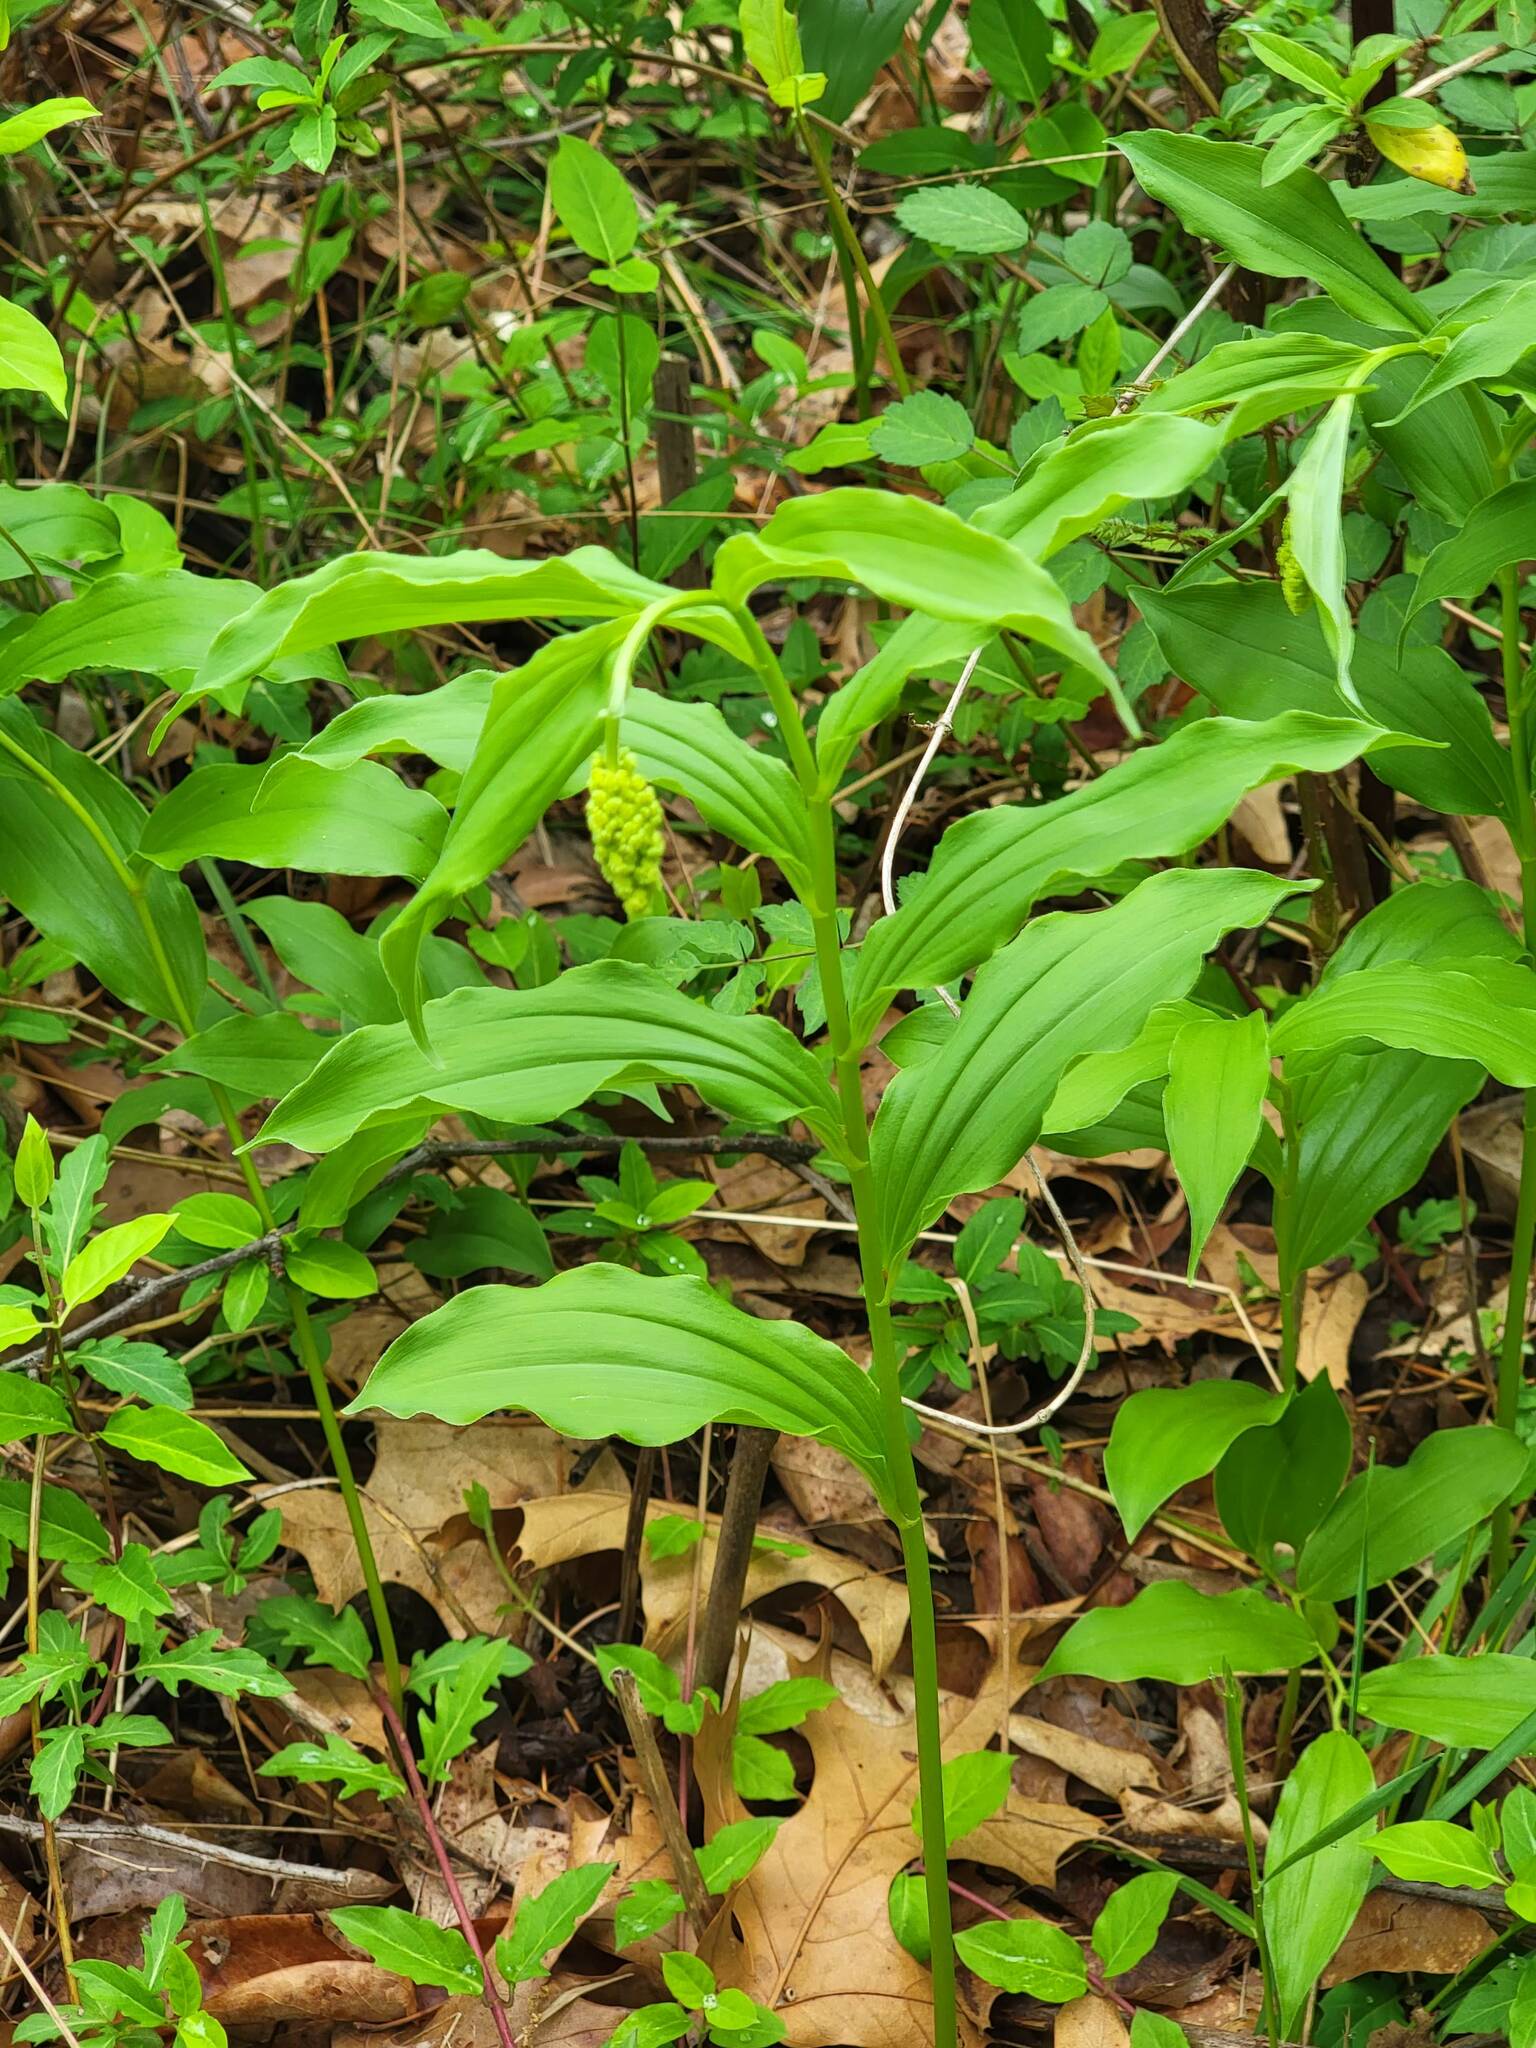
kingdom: Plantae
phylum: Tracheophyta
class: Liliopsida
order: Asparagales
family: Asparagaceae
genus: Maianthemum
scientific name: Maianthemum racemosum
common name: False spikenard
